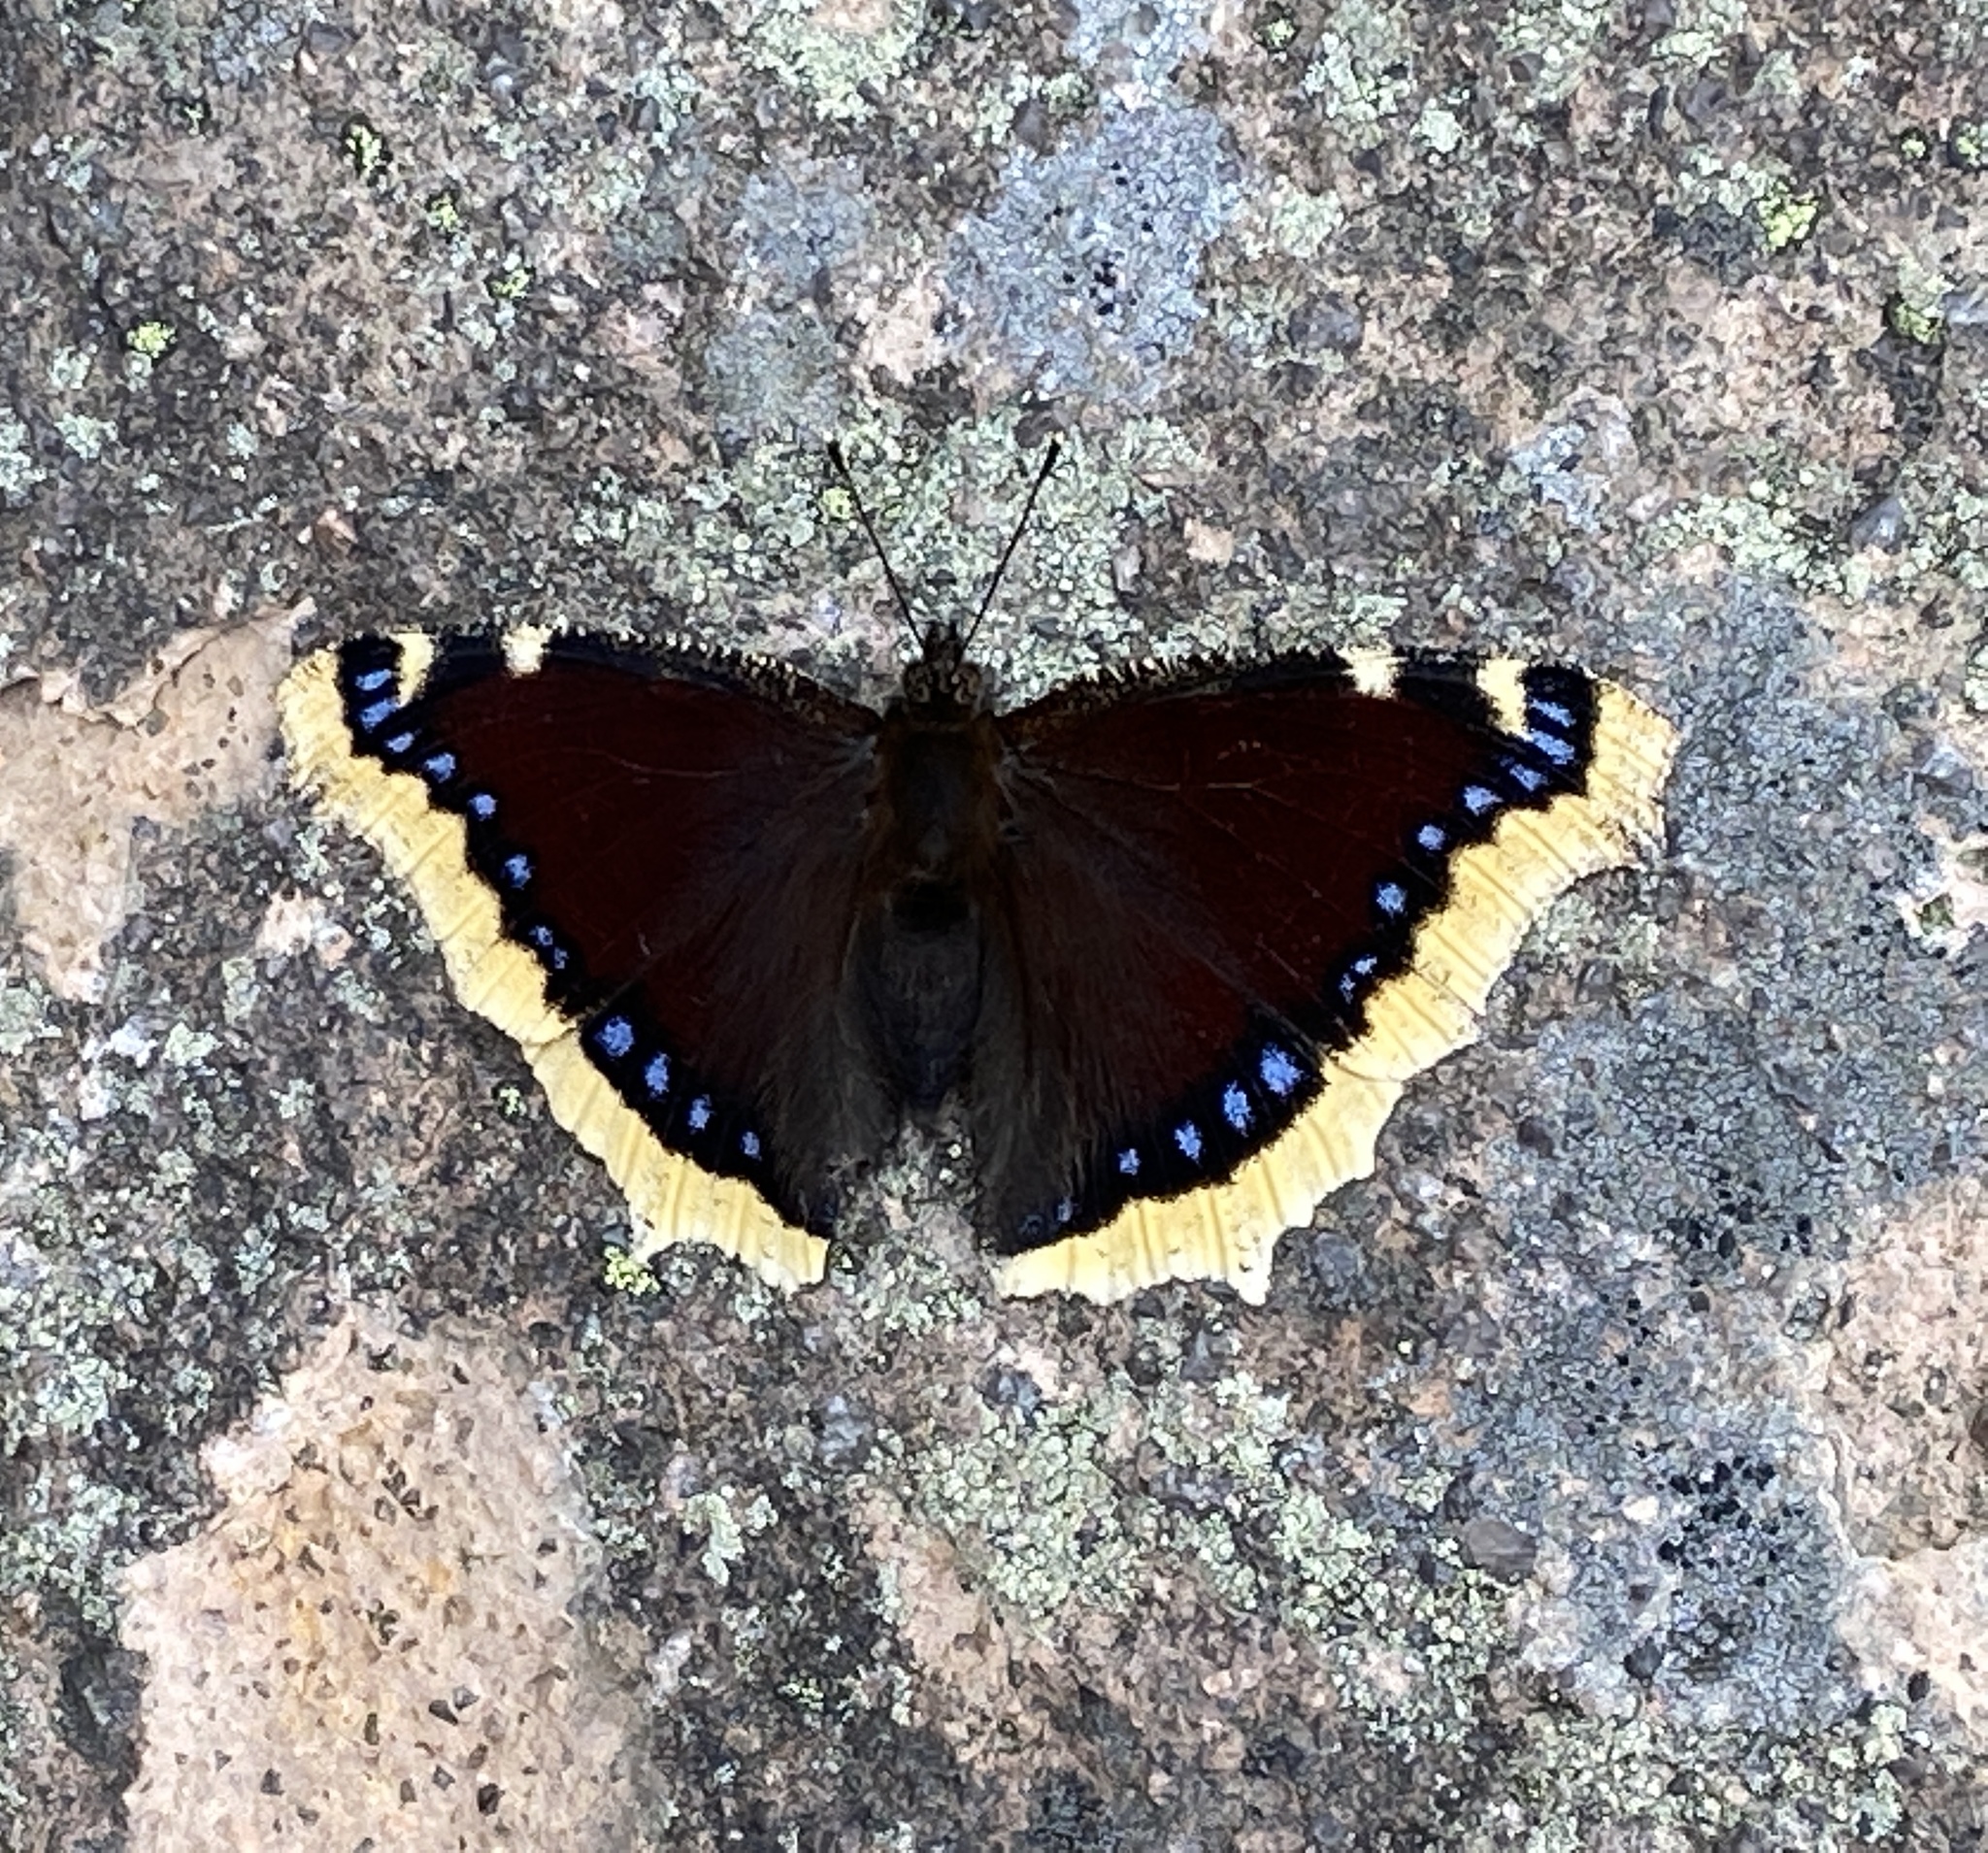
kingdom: Animalia
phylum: Arthropoda
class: Insecta
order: Lepidoptera
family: Nymphalidae
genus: Nymphalis
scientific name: Nymphalis antiopa
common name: Camberwell beauty
